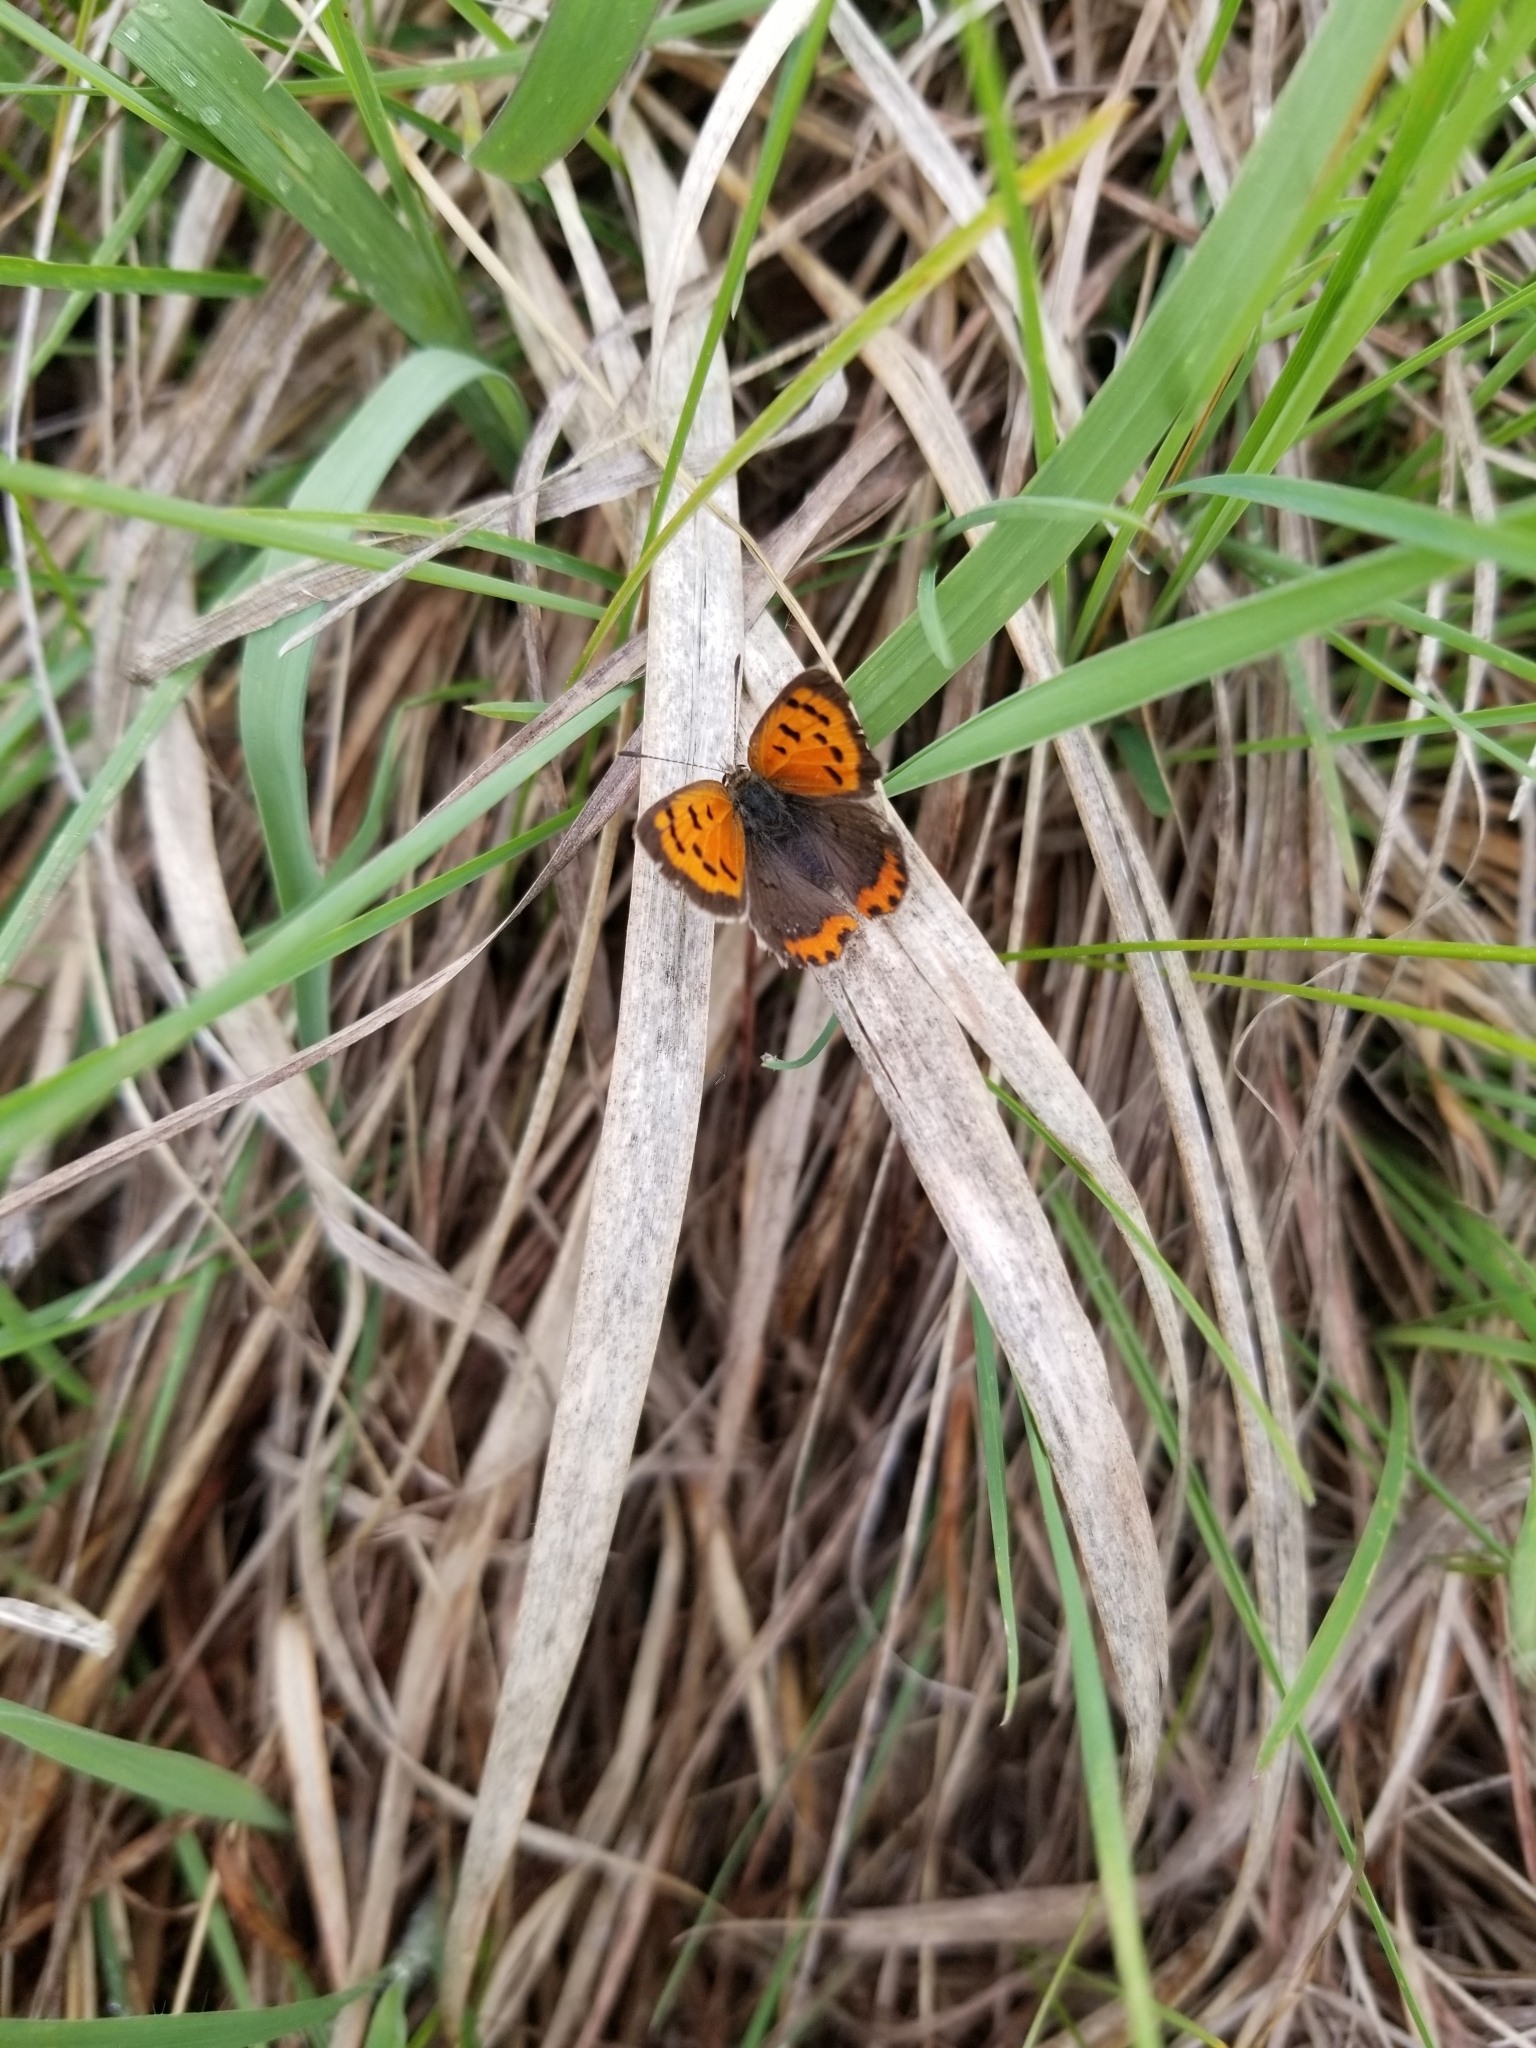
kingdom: Animalia
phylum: Arthropoda
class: Insecta
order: Lepidoptera
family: Lycaenidae
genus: Lycaena
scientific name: Lycaena hypophlaeas
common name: American copper
